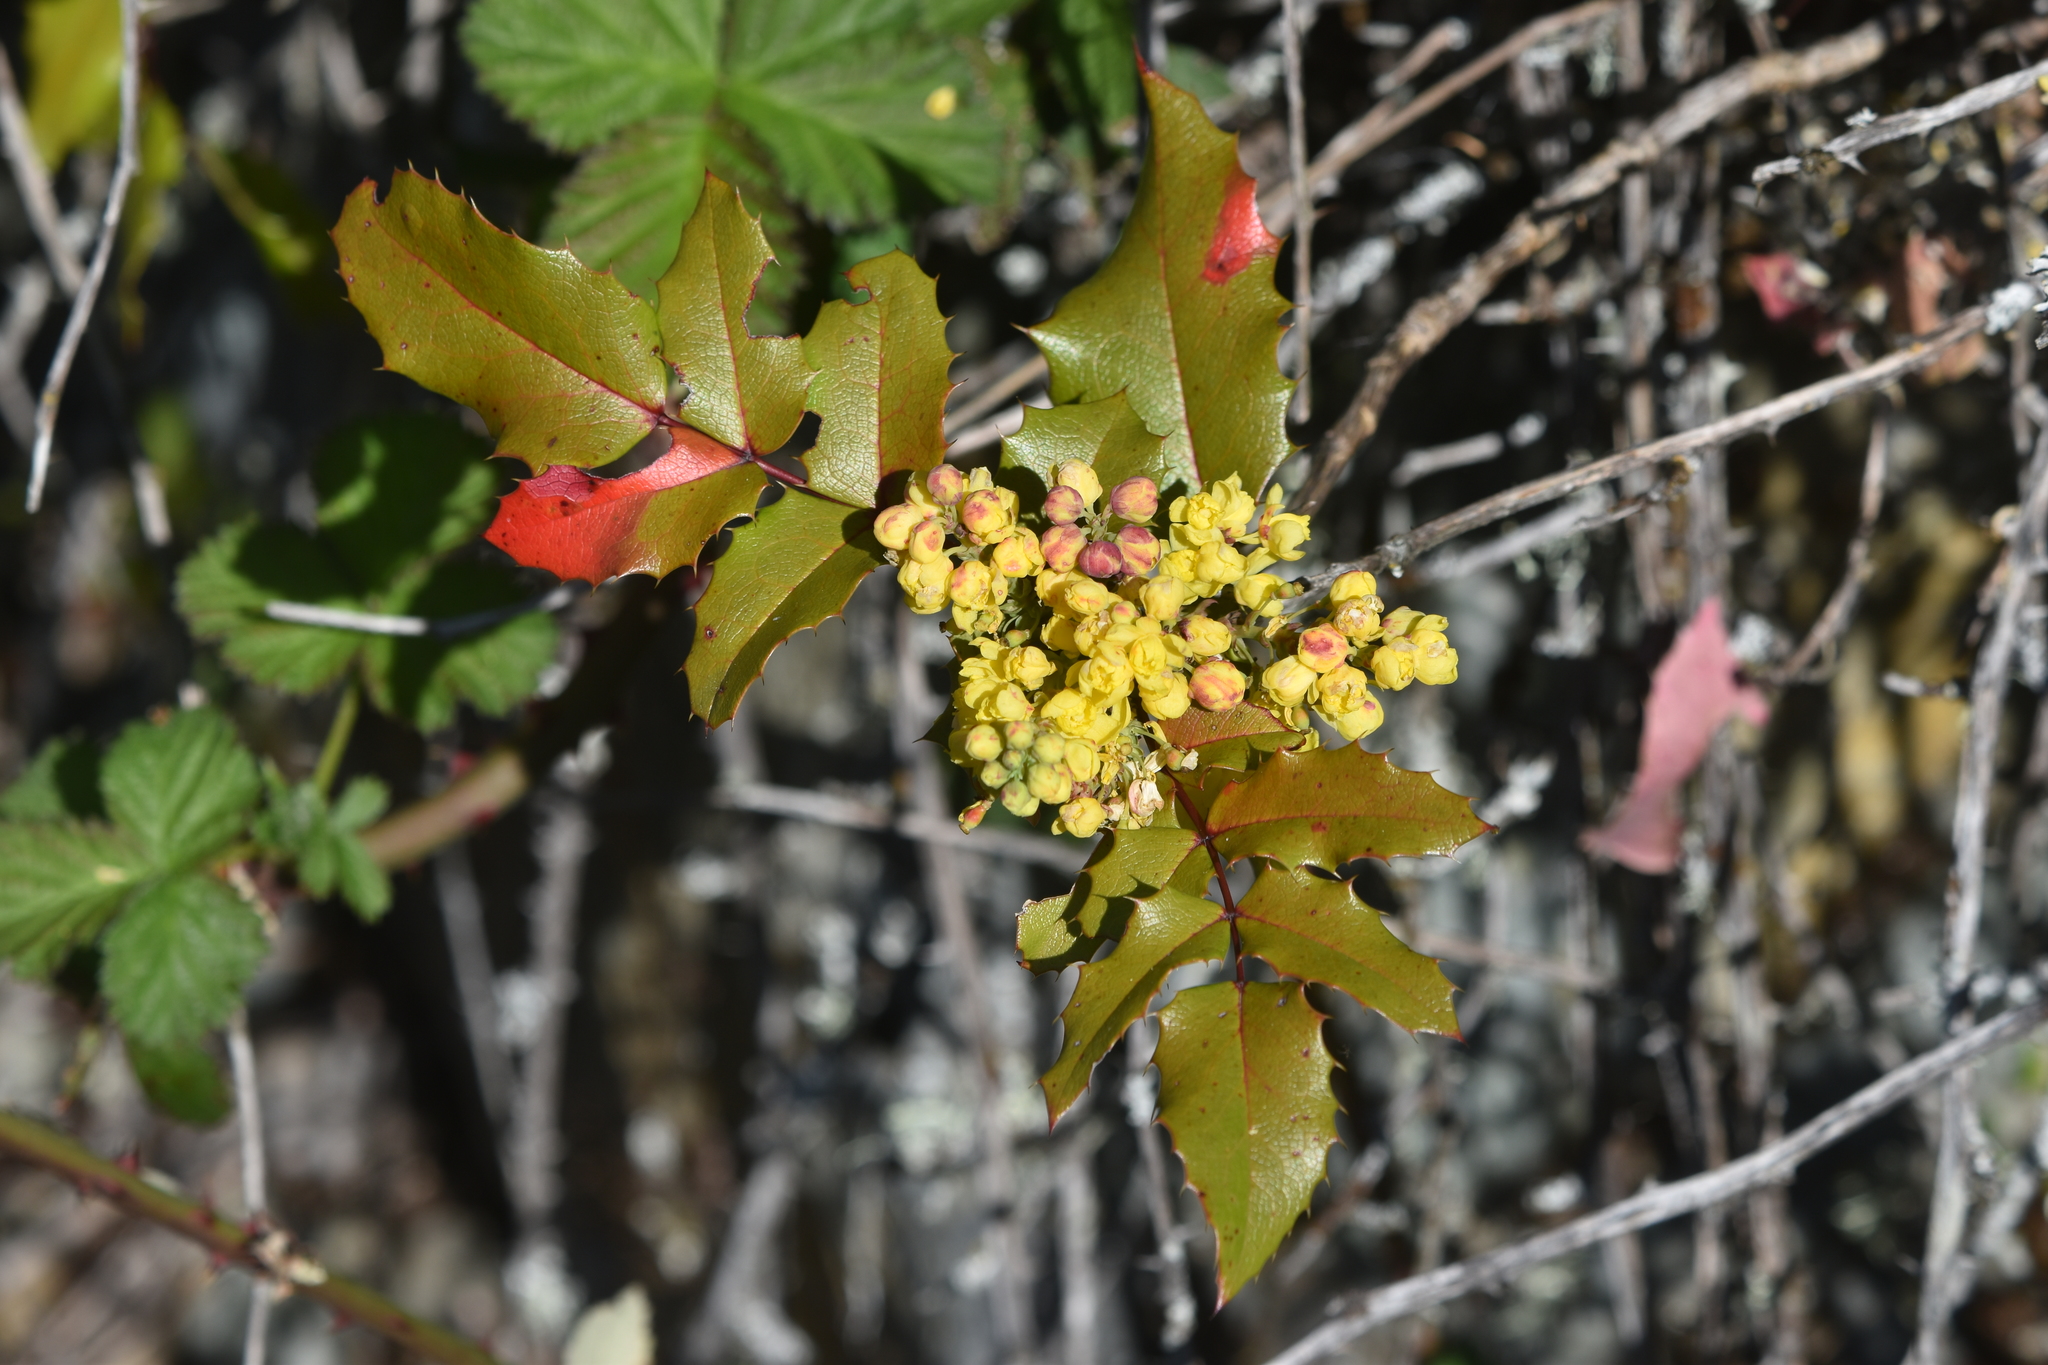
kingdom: Plantae
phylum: Tracheophyta
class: Magnoliopsida
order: Ranunculales
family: Berberidaceae
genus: Mahonia
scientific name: Mahonia aquifolium
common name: Oregon-grape
